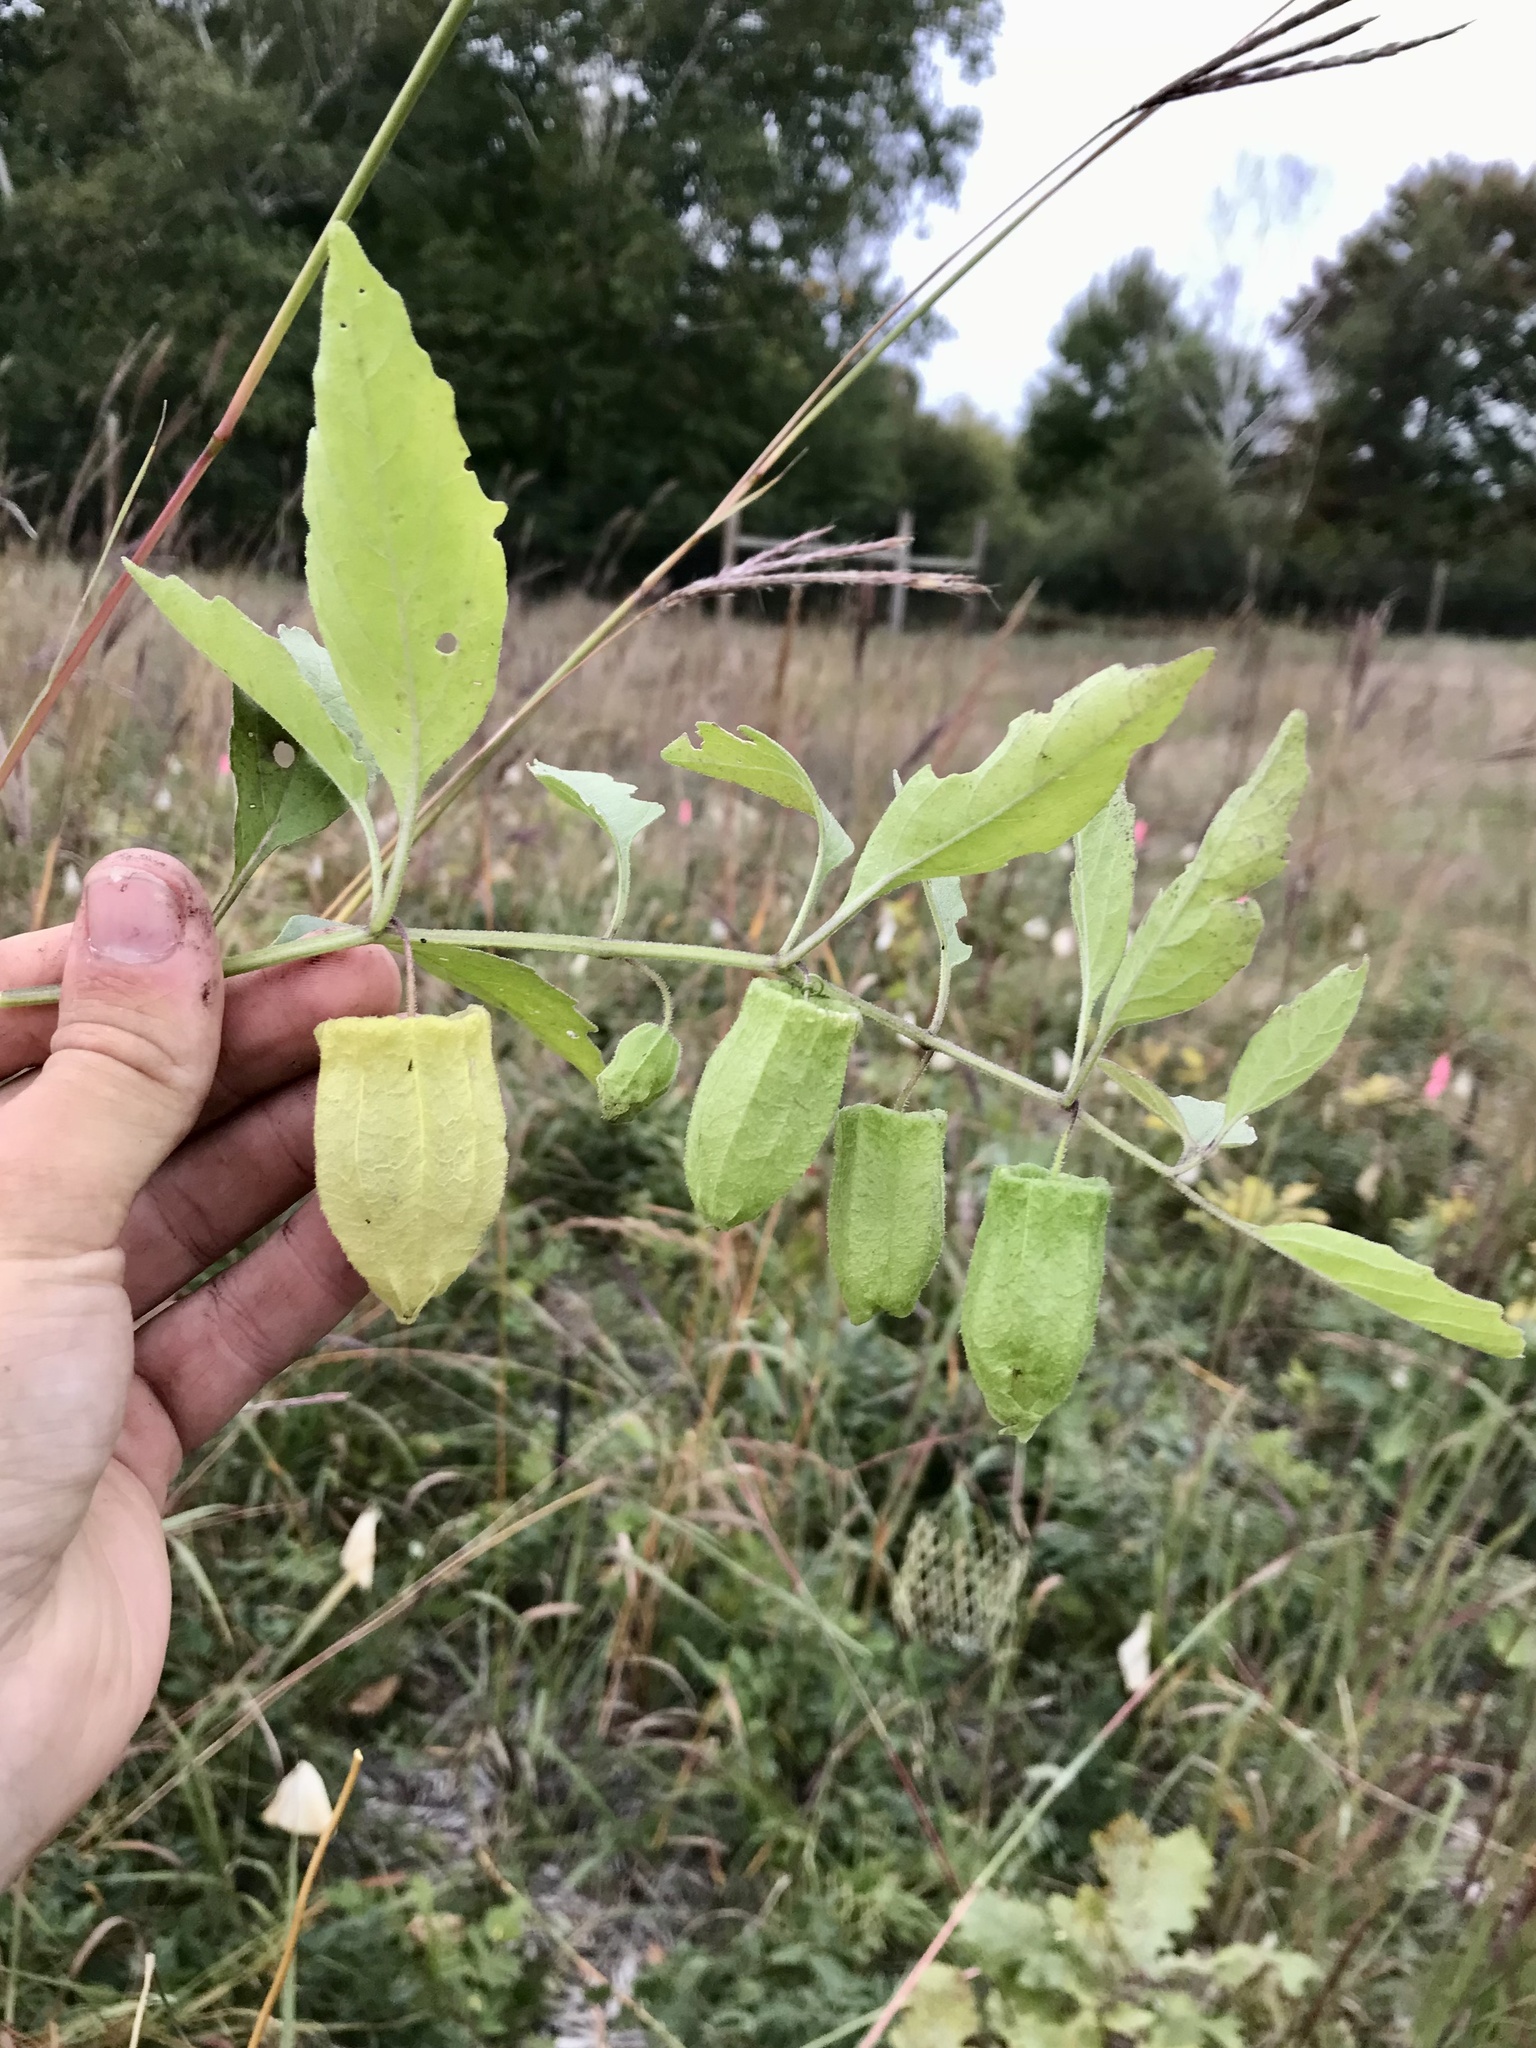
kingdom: Plantae
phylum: Tracheophyta
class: Magnoliopsida
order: Solanales
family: Solanaceae
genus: Physalis
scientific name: Physalis virginiana
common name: Virginia ground-cherry
